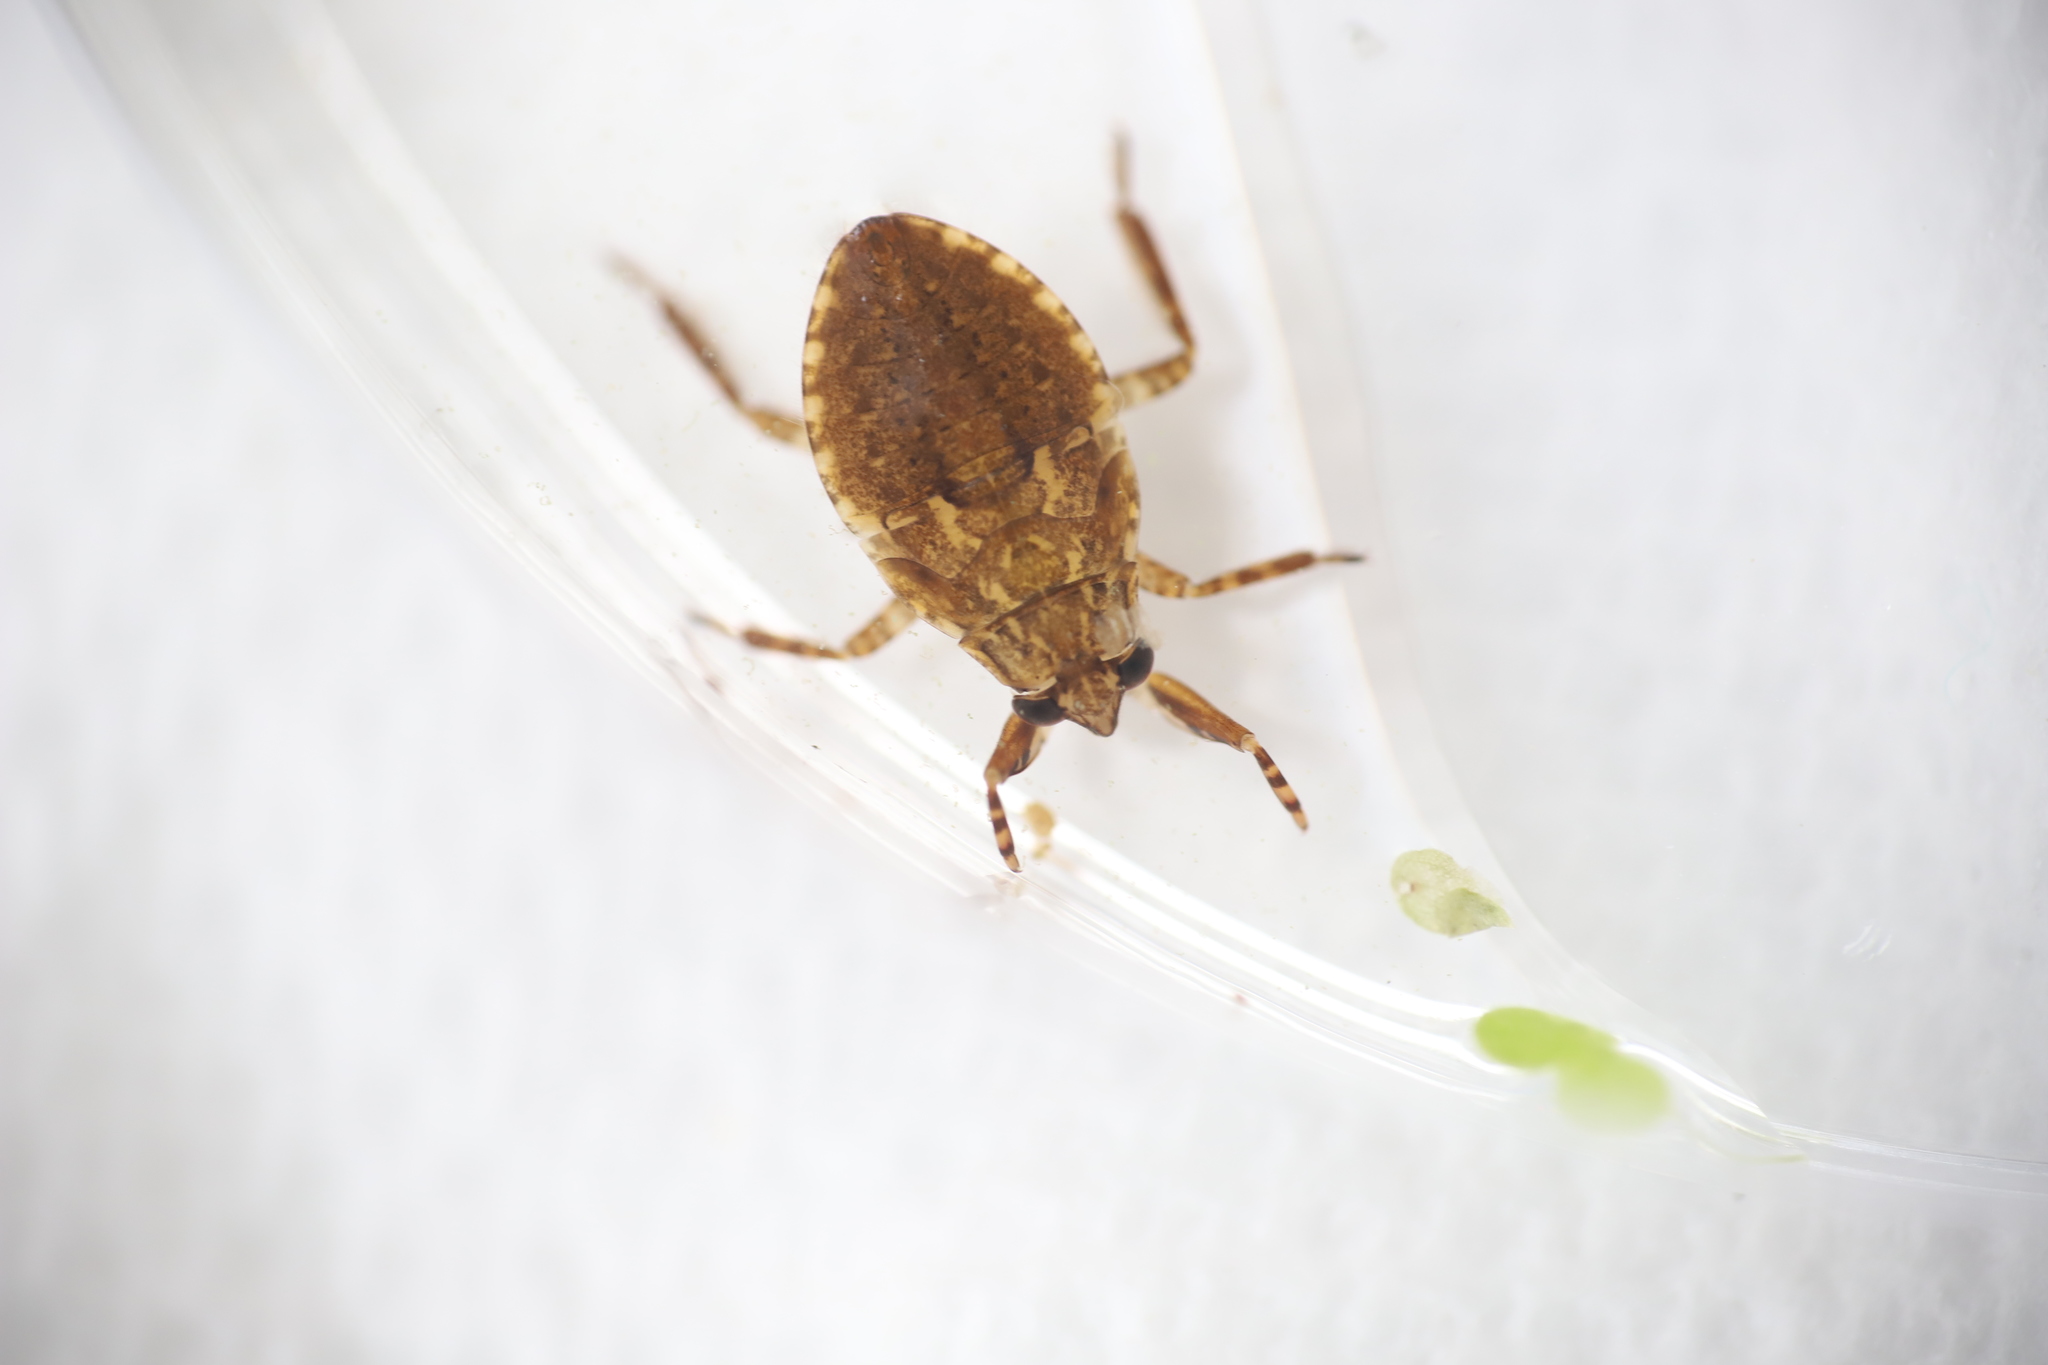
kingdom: Animalia
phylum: Arthropoda
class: Insecta
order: Hemiptera
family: Belostomatidae
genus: Belostoma
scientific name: Belostoma
